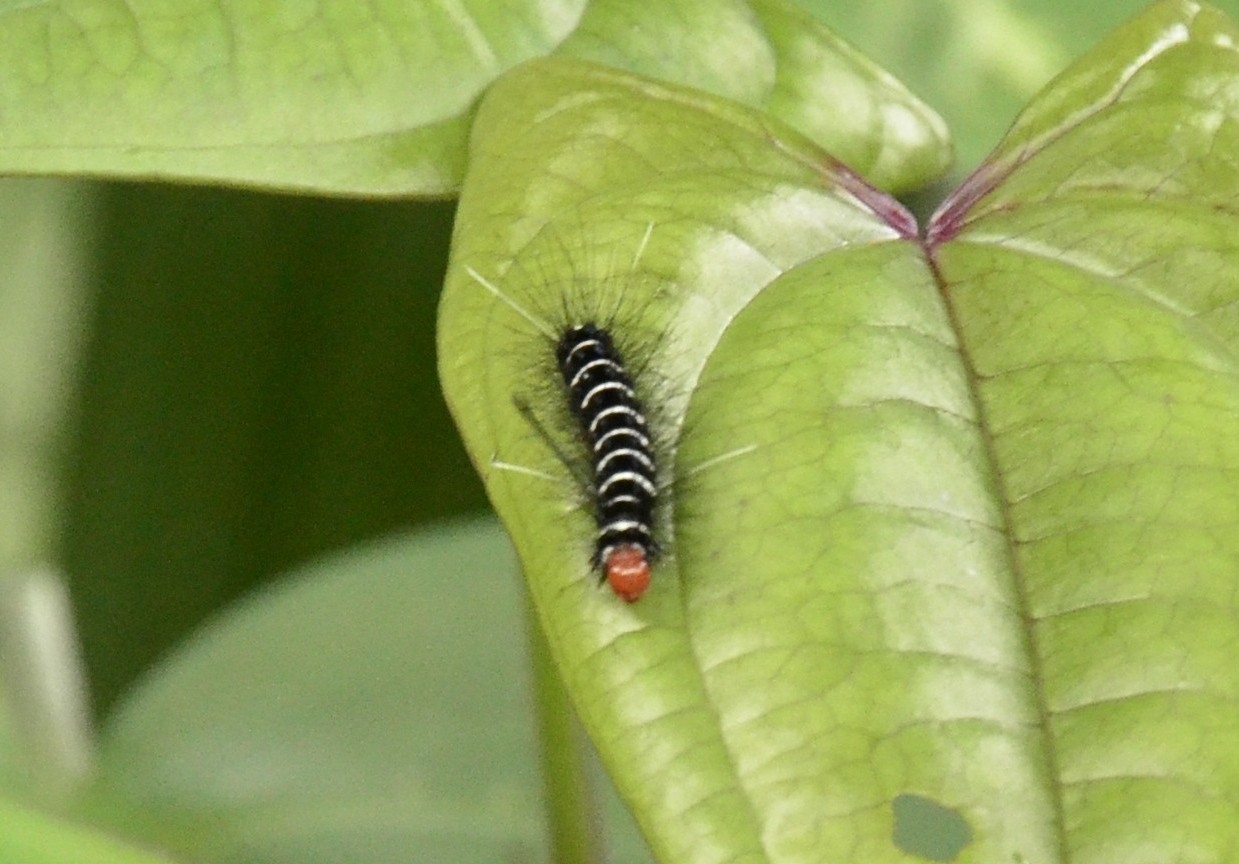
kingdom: Animalia
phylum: Arthropoda
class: Insecta
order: Lepidoptera
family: Erebidae
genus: Nyctemera
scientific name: Nyctemera coleta
